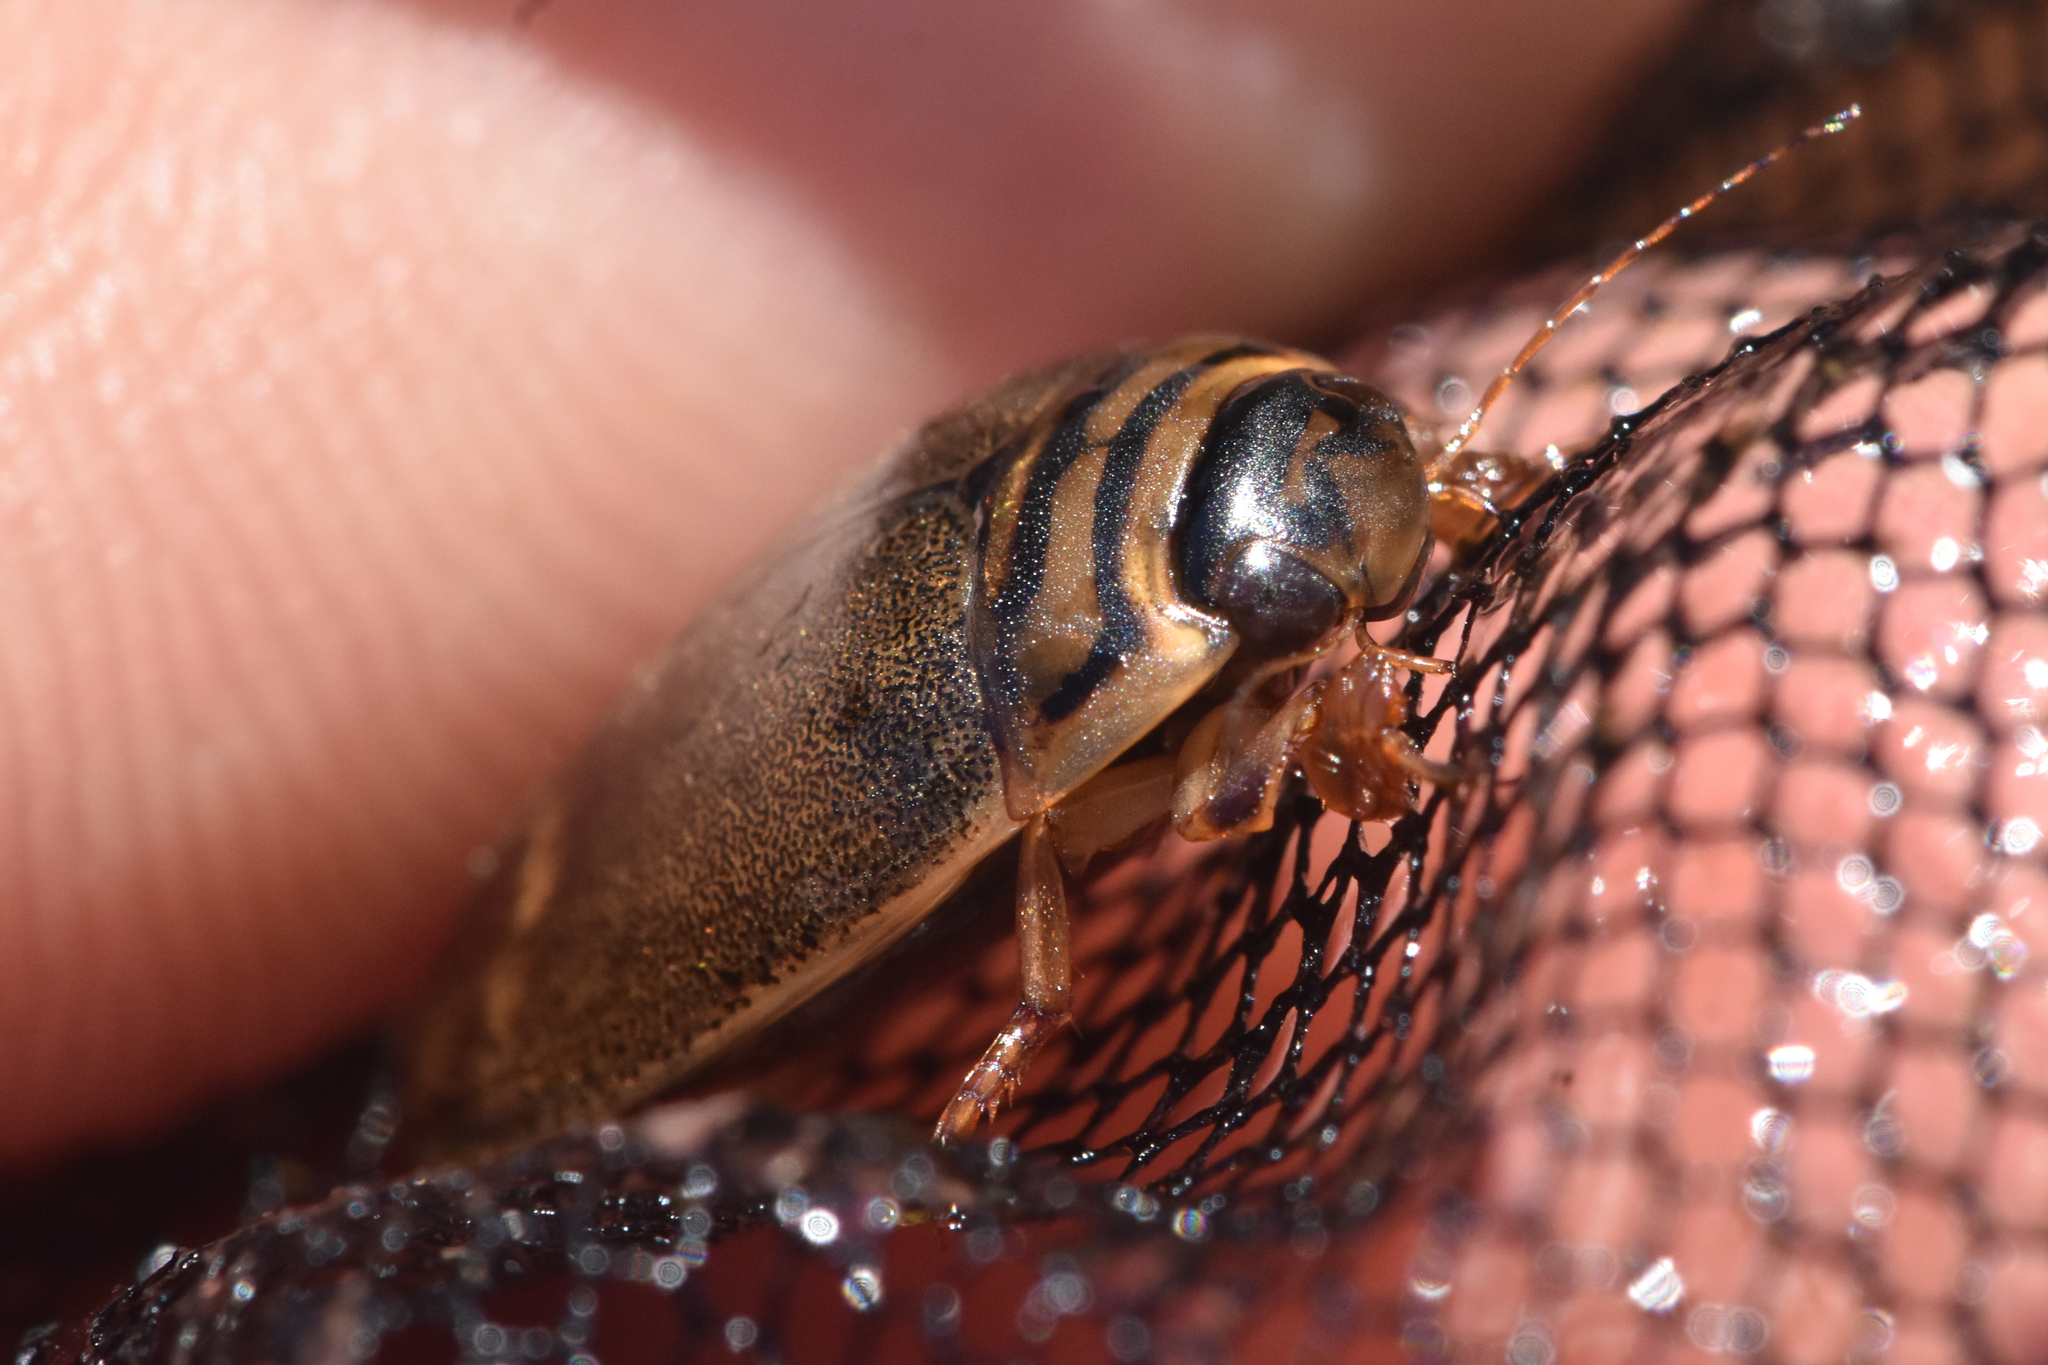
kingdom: Animalia
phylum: Arthropoda
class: Insecta
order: Coleoptera
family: Dytiscidae
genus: Acilius
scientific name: Acilius abbreviatus
